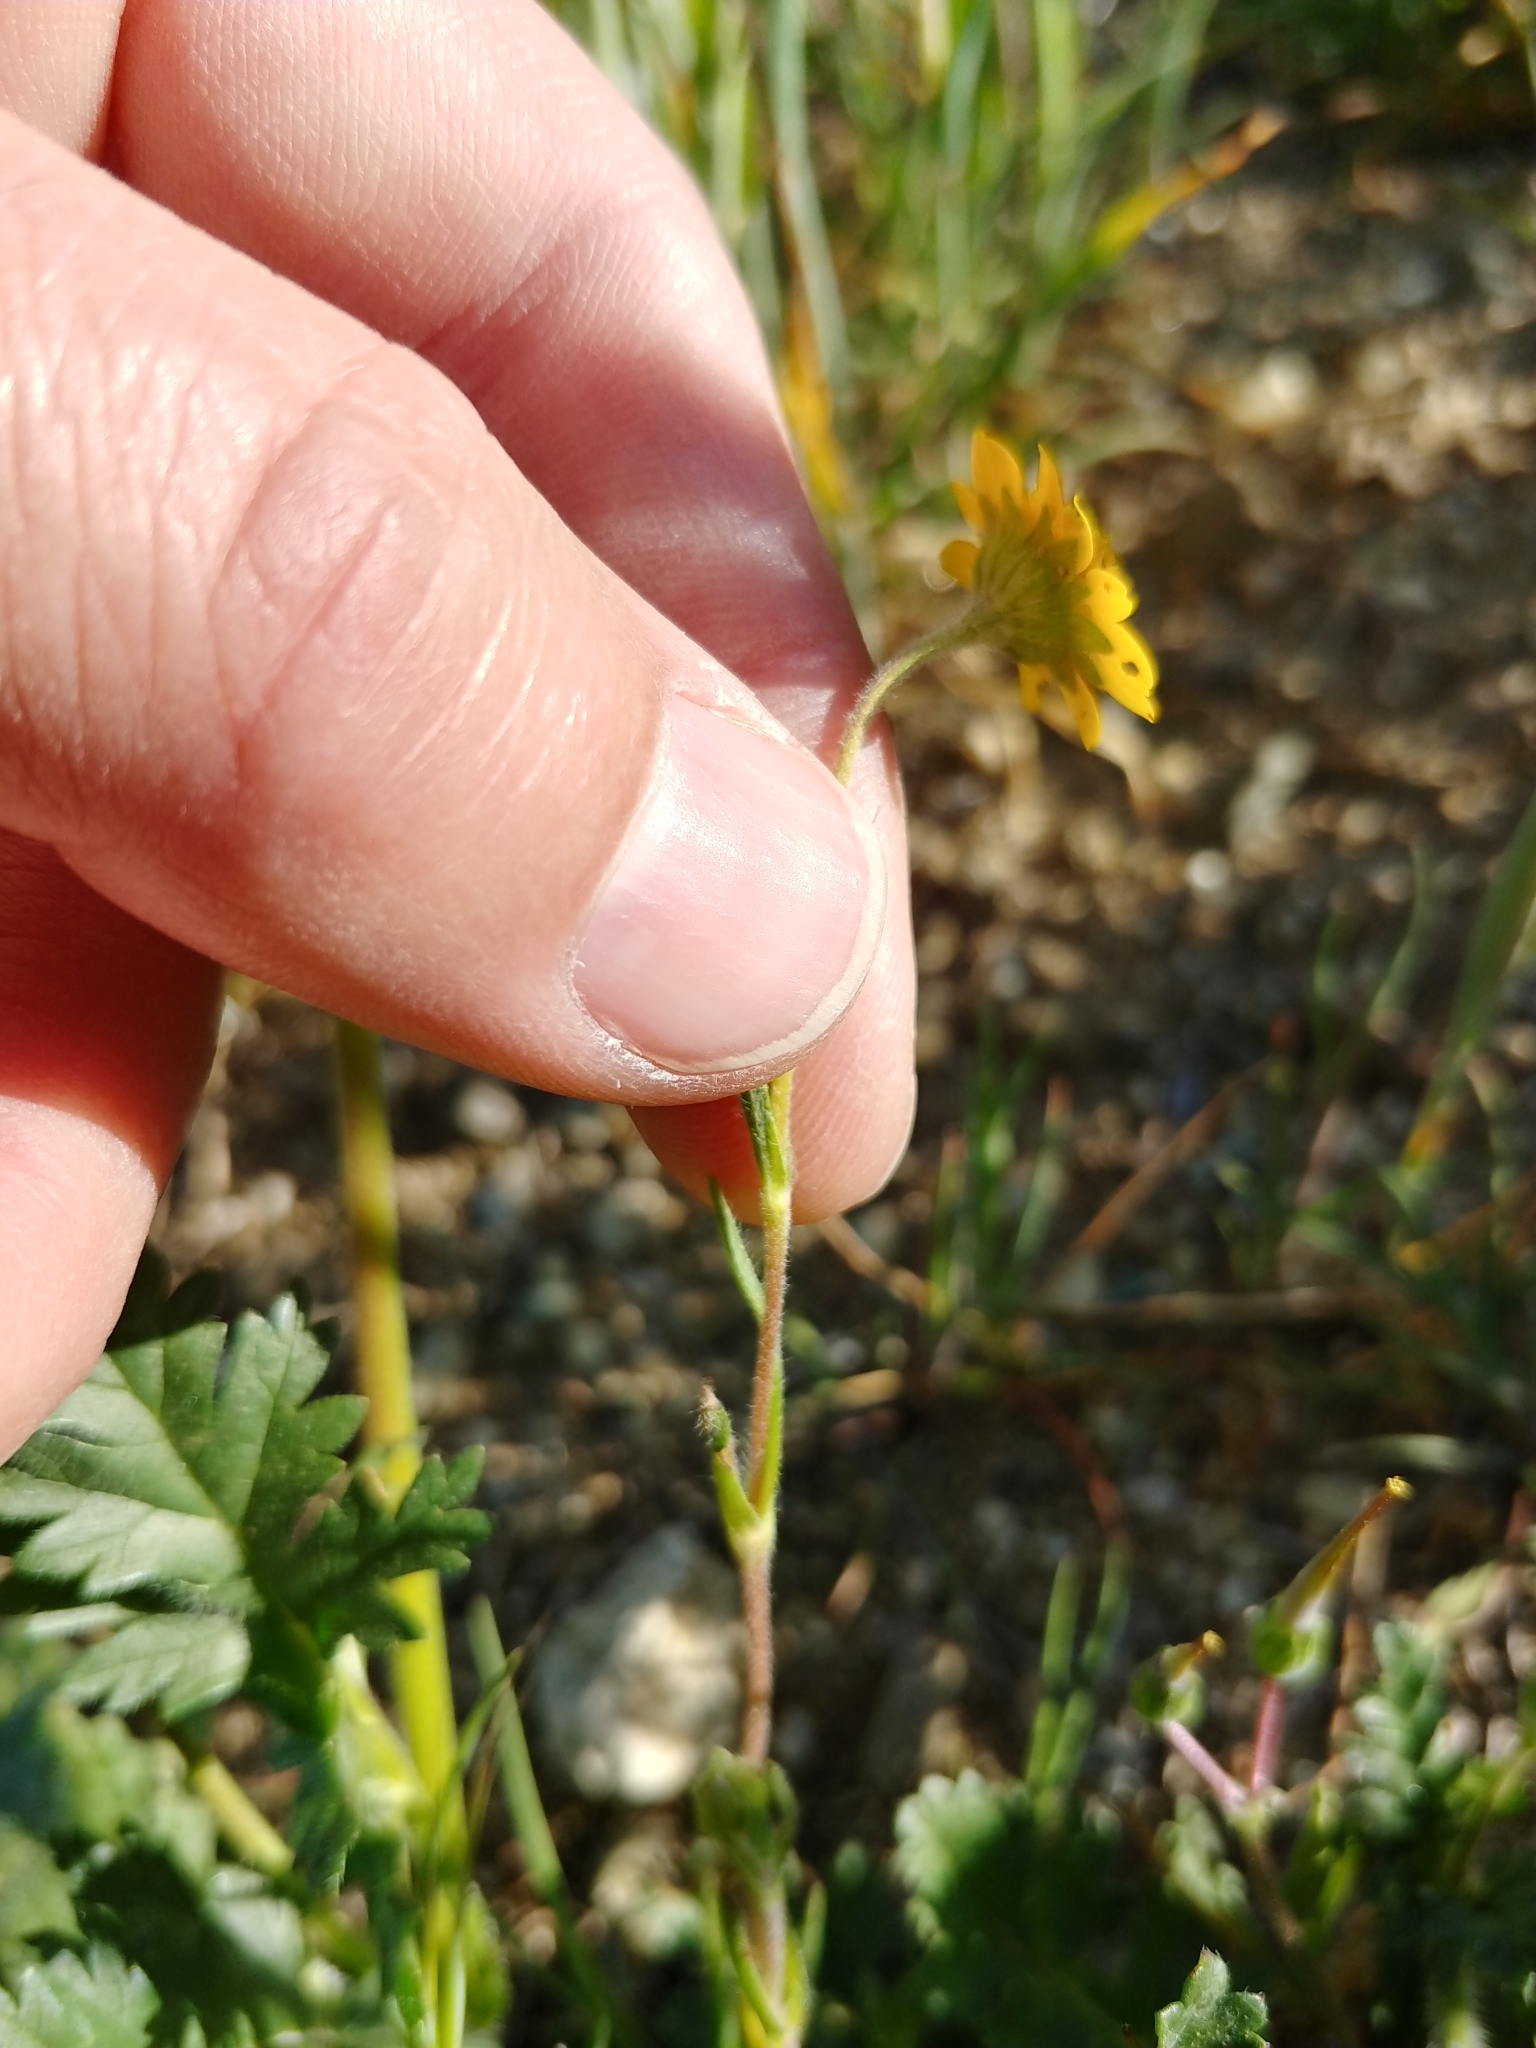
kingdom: Plantae
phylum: Tracheophyta
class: Magnoliopsida
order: Asterales
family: Asteraceae
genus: Lasthenia
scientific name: Lasthenia gracilis
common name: Common goldfields
